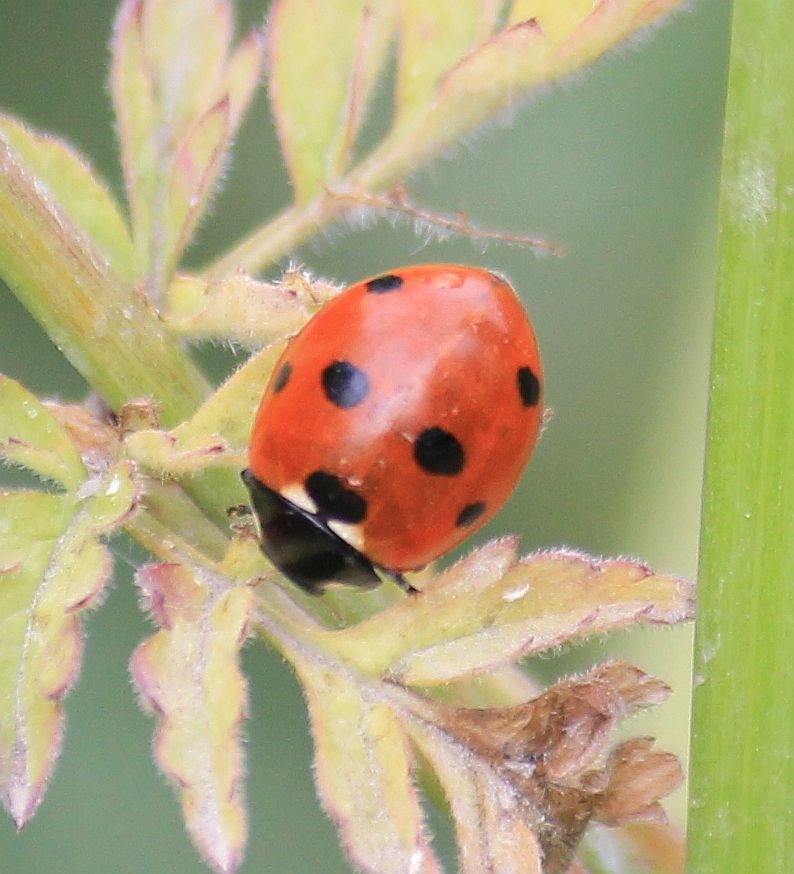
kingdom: Animalia
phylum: Arthropoda
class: Insecta
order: Coleoptera
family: Coccinellidae
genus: Coccinella
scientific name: Coccinella septempunctata
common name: Sevenspotted lady beetle
